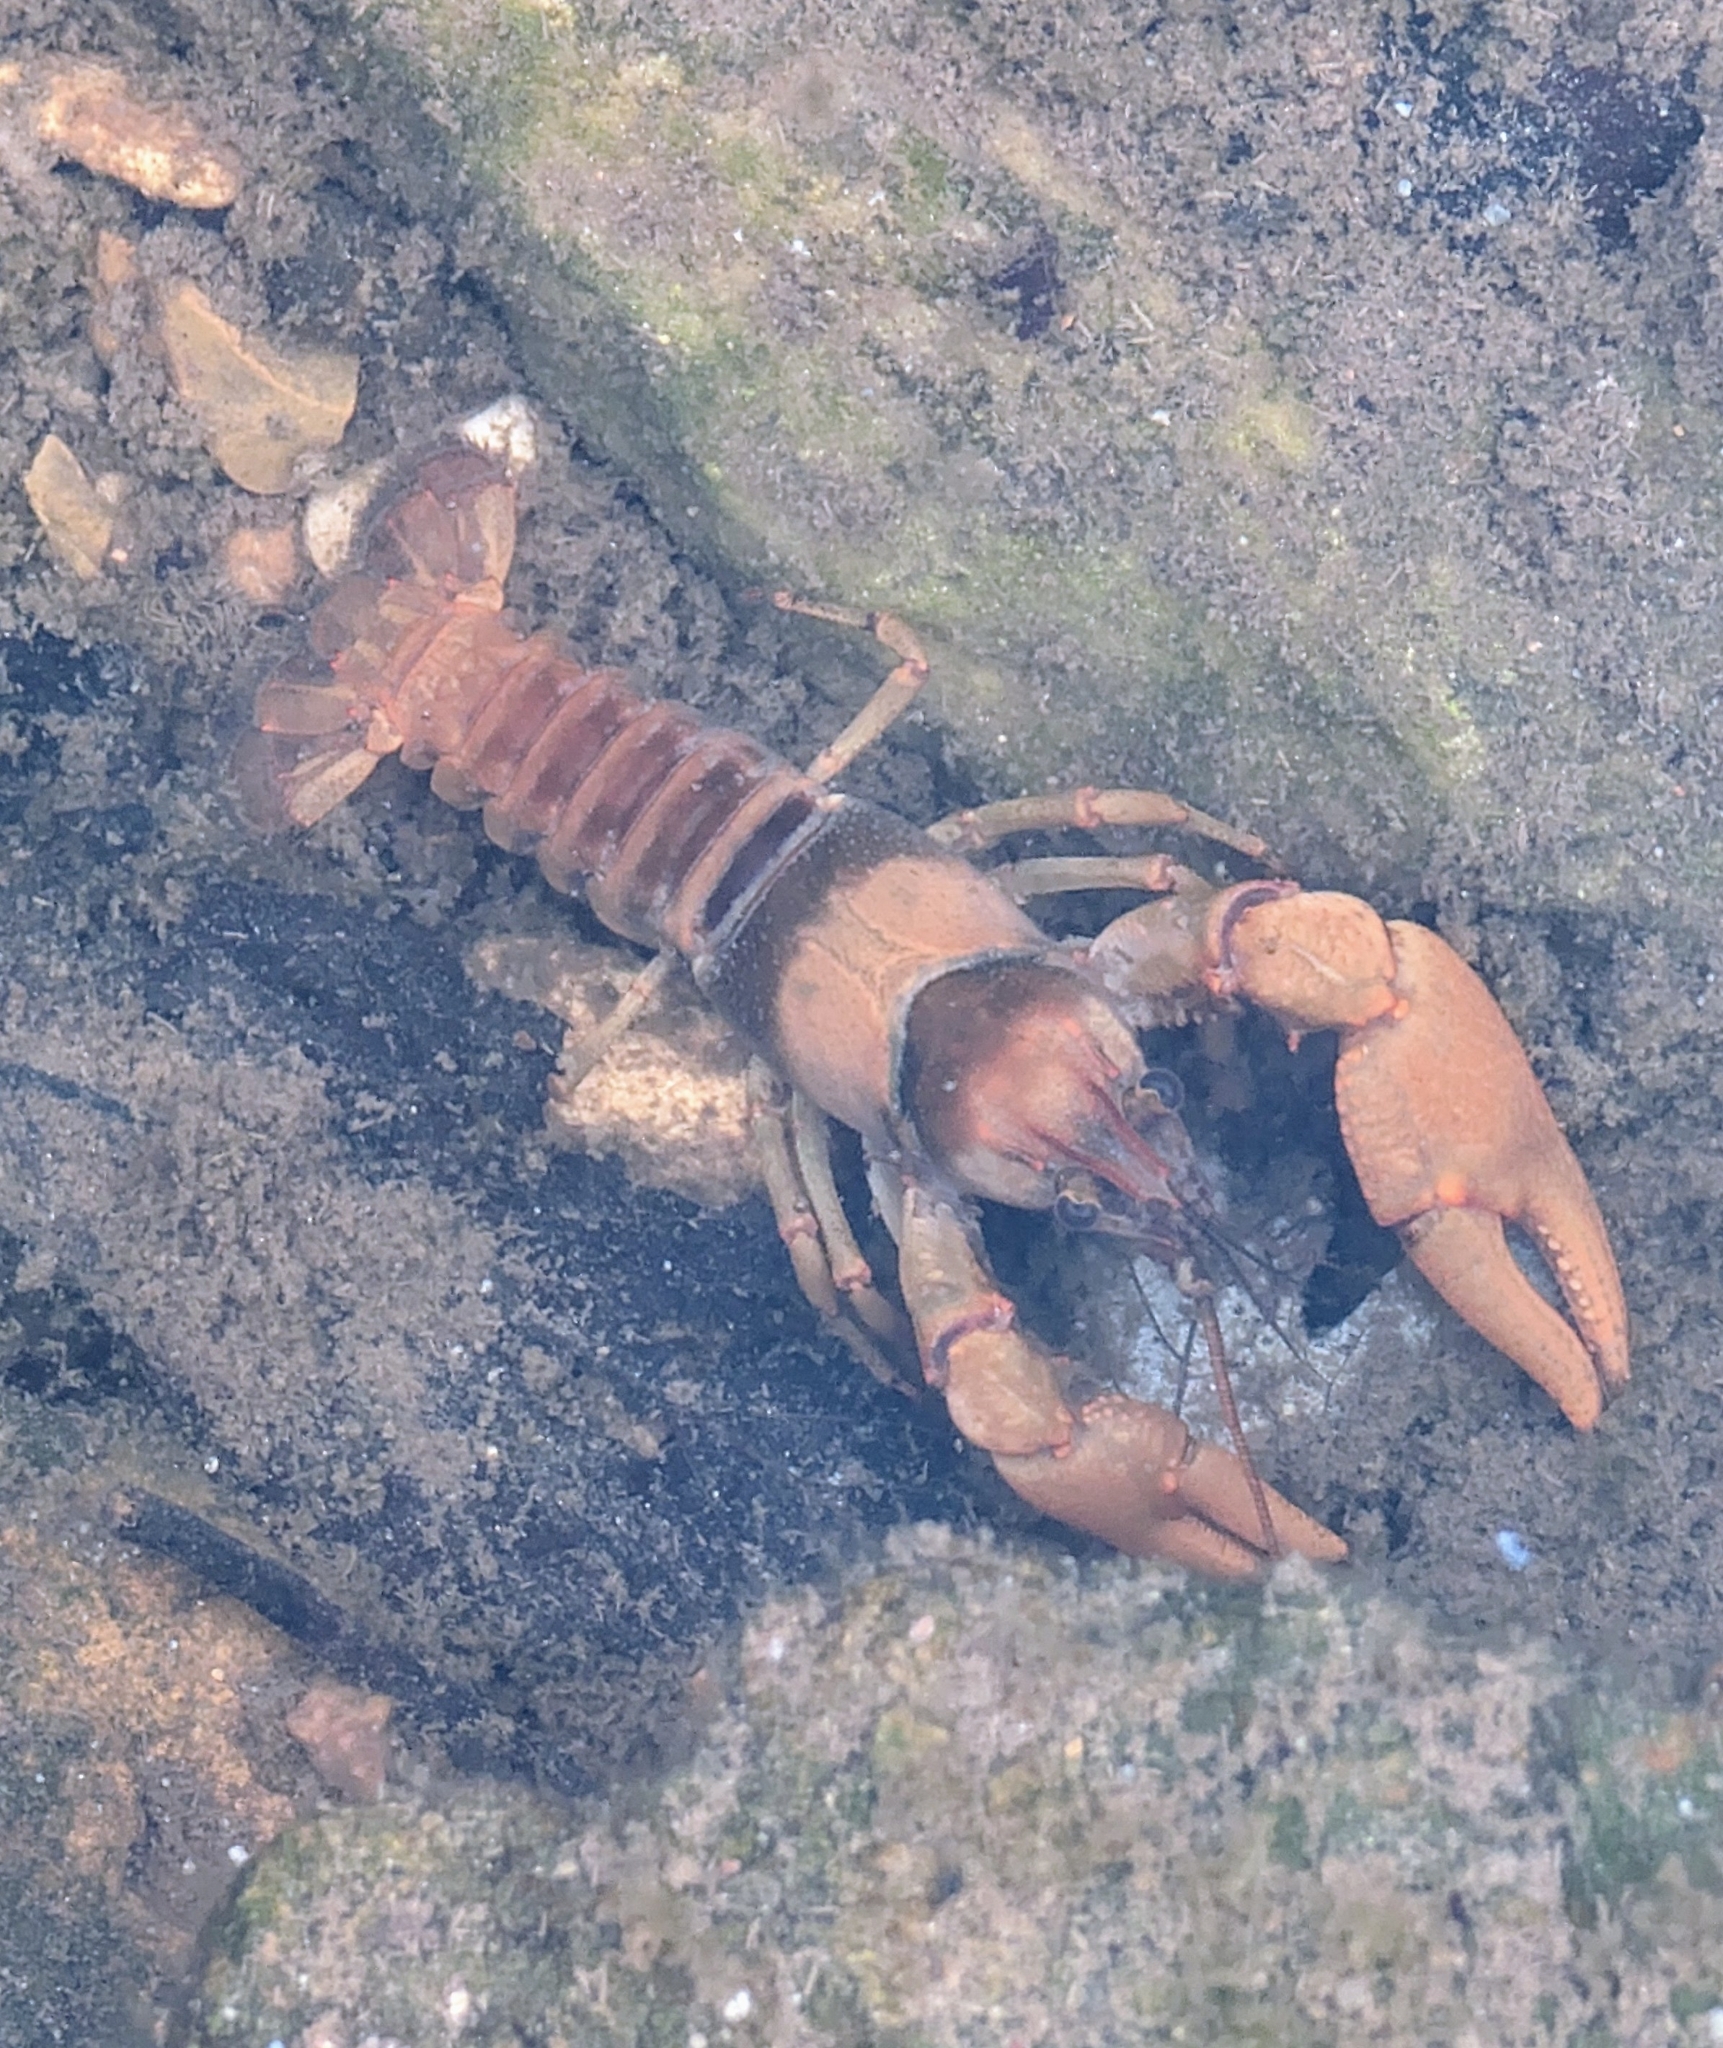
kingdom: Animalia
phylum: Arthropoda
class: Malacostraca
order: Decapoda
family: Cambaridae
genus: Faxonius
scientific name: Faxonius luteus
